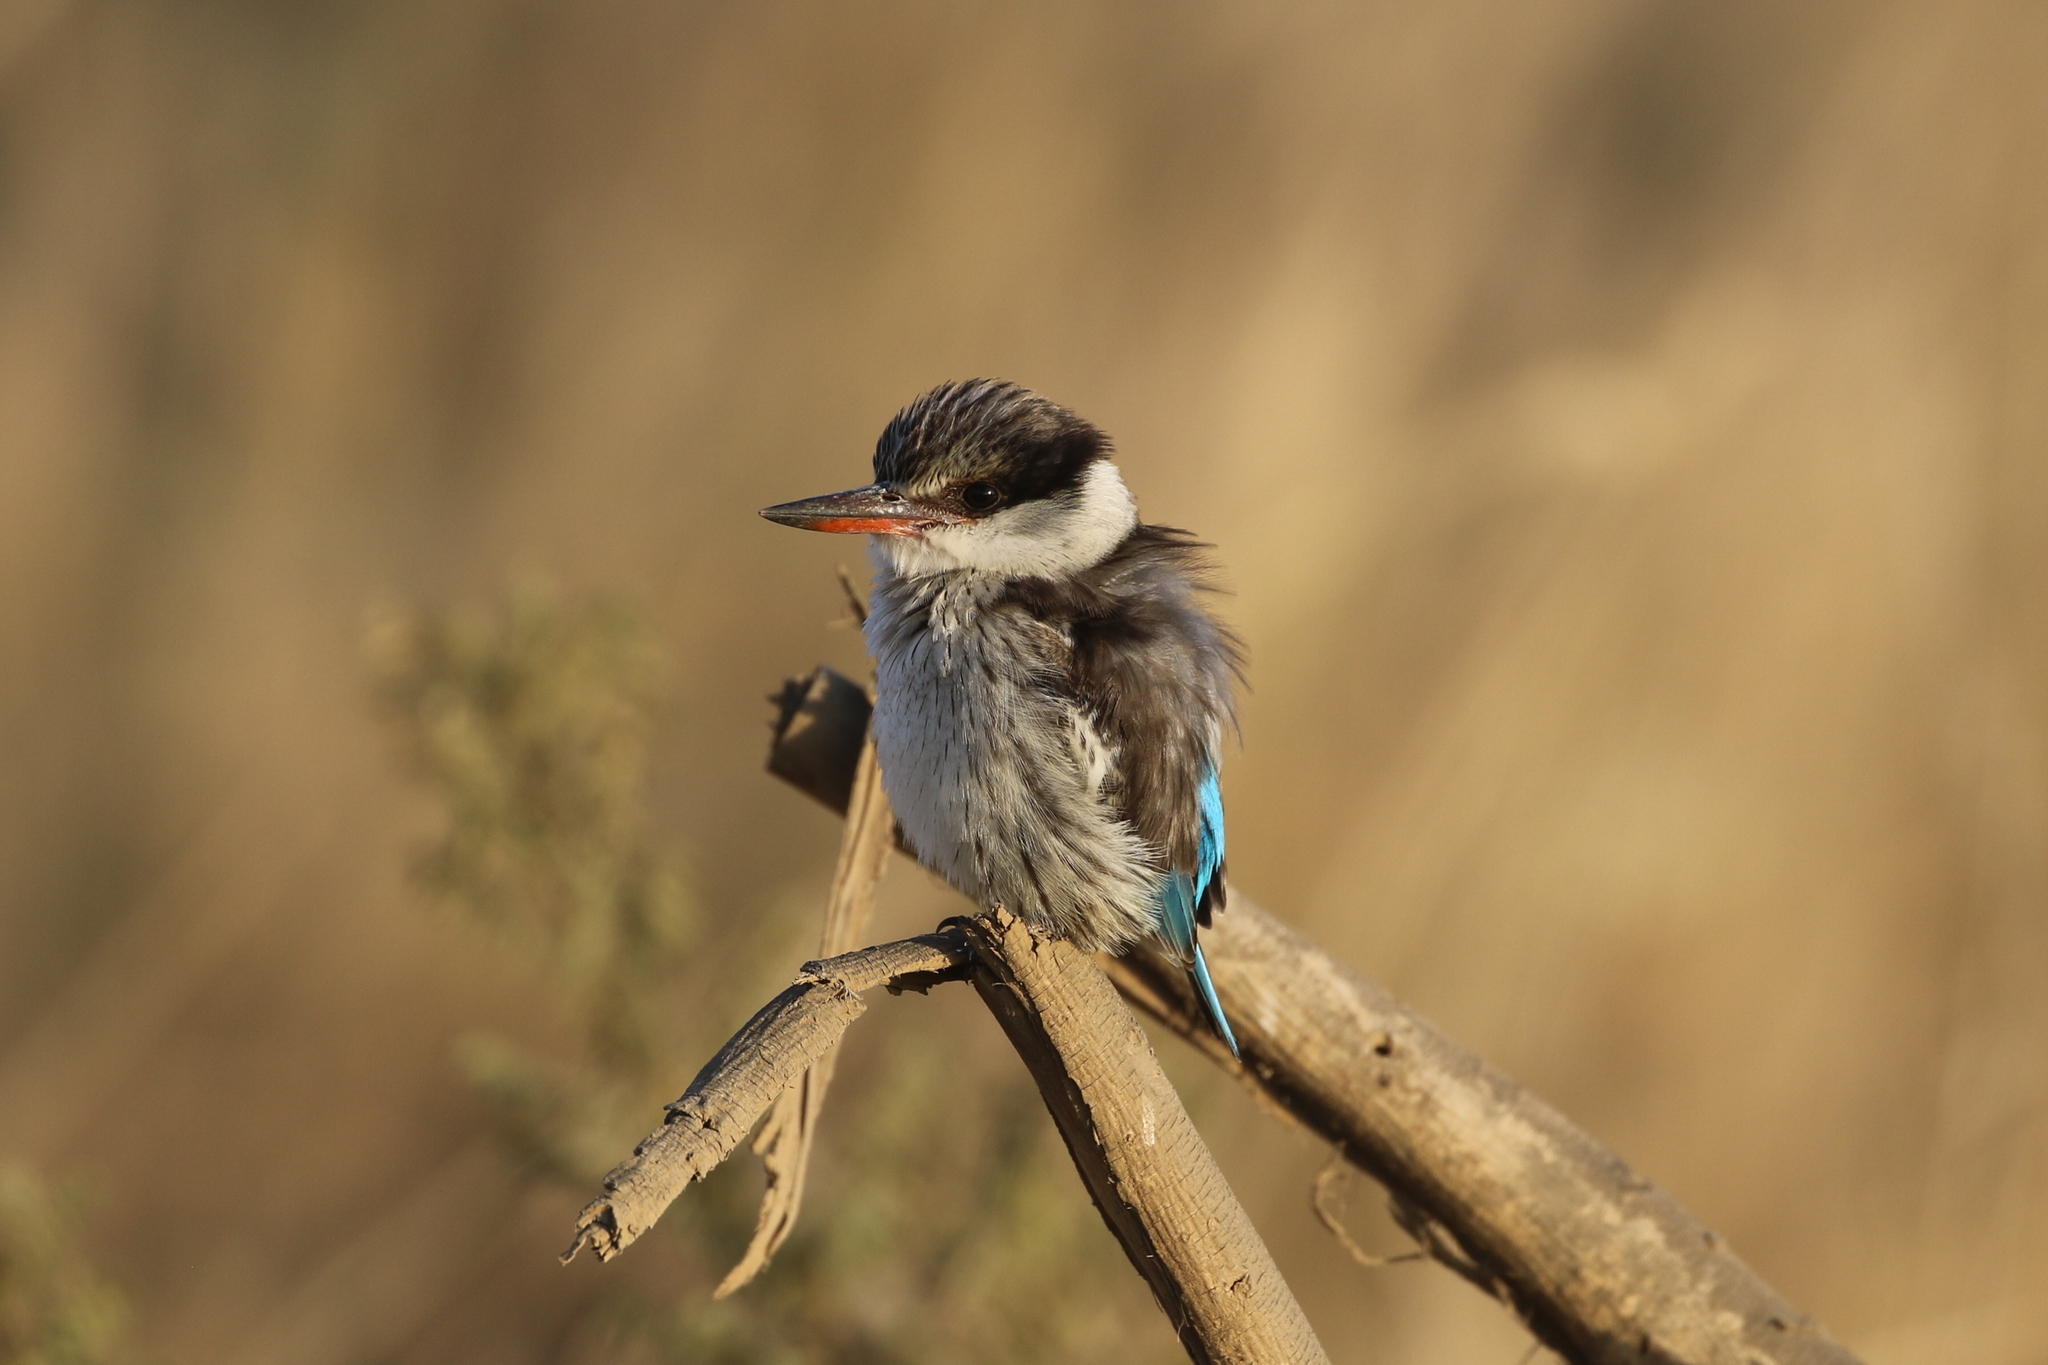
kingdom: Animalia
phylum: Chordata
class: Aves
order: Coraciiformes
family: Alcedinidae
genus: Halcyon
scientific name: Halcyon chelicuti
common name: Striped kingfisher
